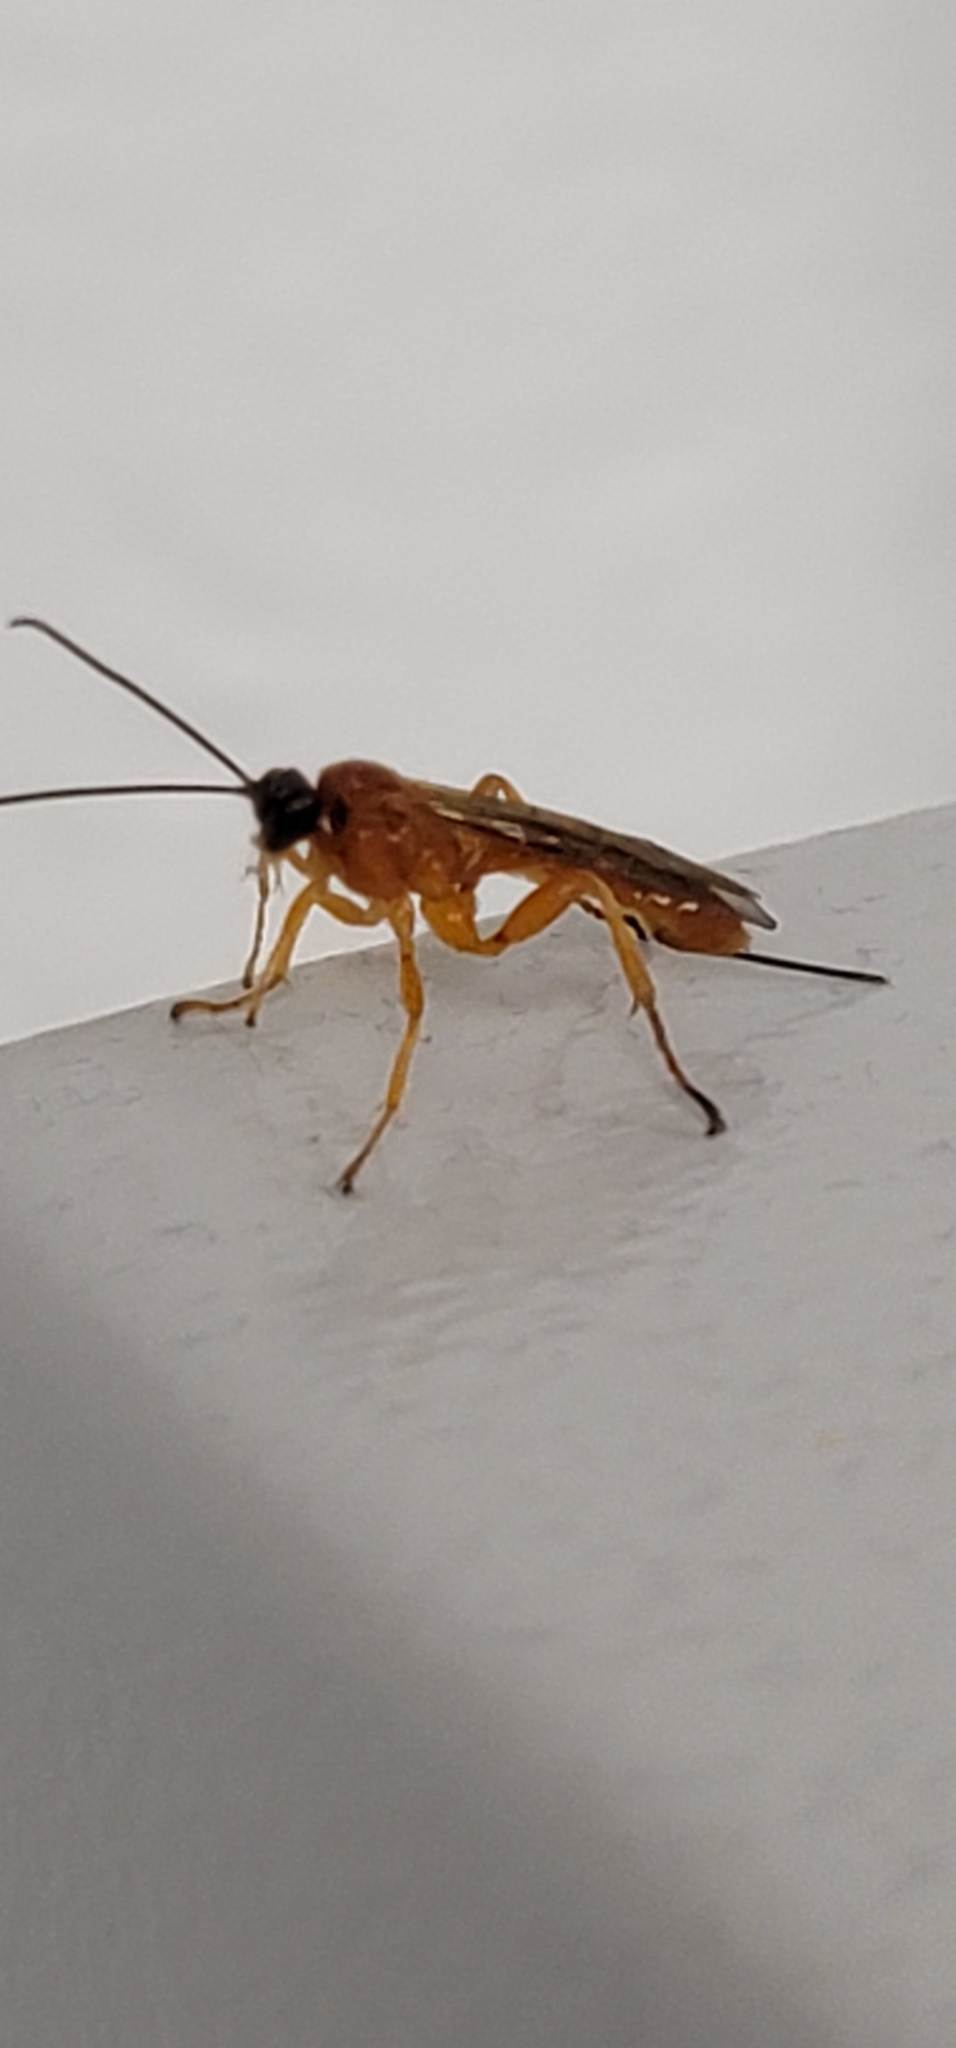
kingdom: Animalia
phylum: Arthropoda
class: Insecta
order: Hymenoptera
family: Ichneumonidae
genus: Theronia
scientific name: Theronia hilaris
